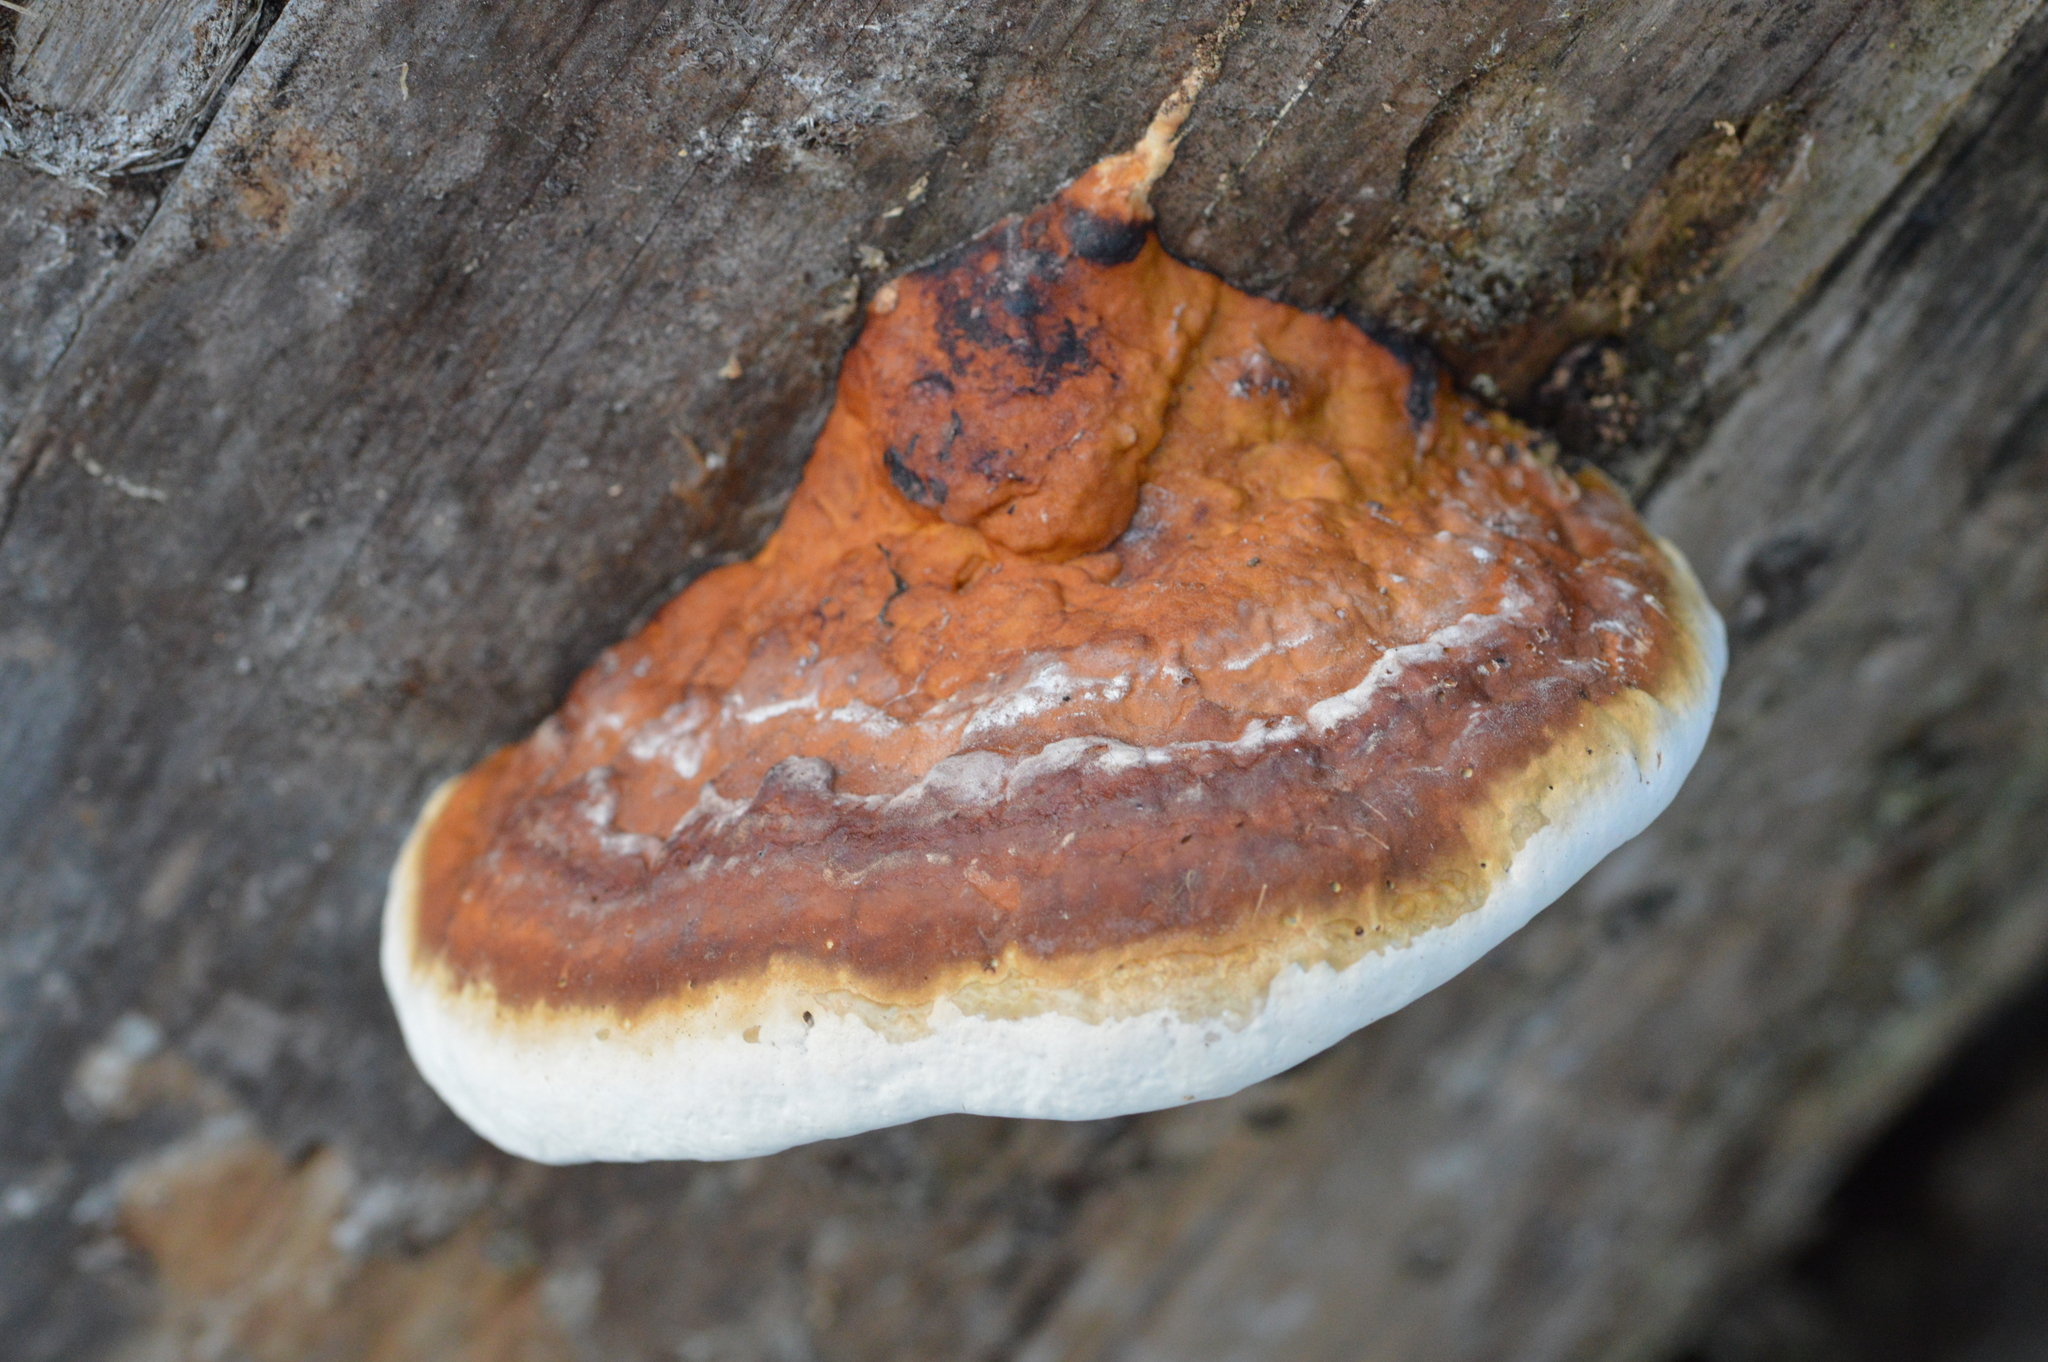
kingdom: Fungi
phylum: Basidiomycota
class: Agaricomycetes
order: Polyporales
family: Fomitopsidaceae
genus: Fomitopsis
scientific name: Fomitopsis pinicola
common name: Red-belted bracket
